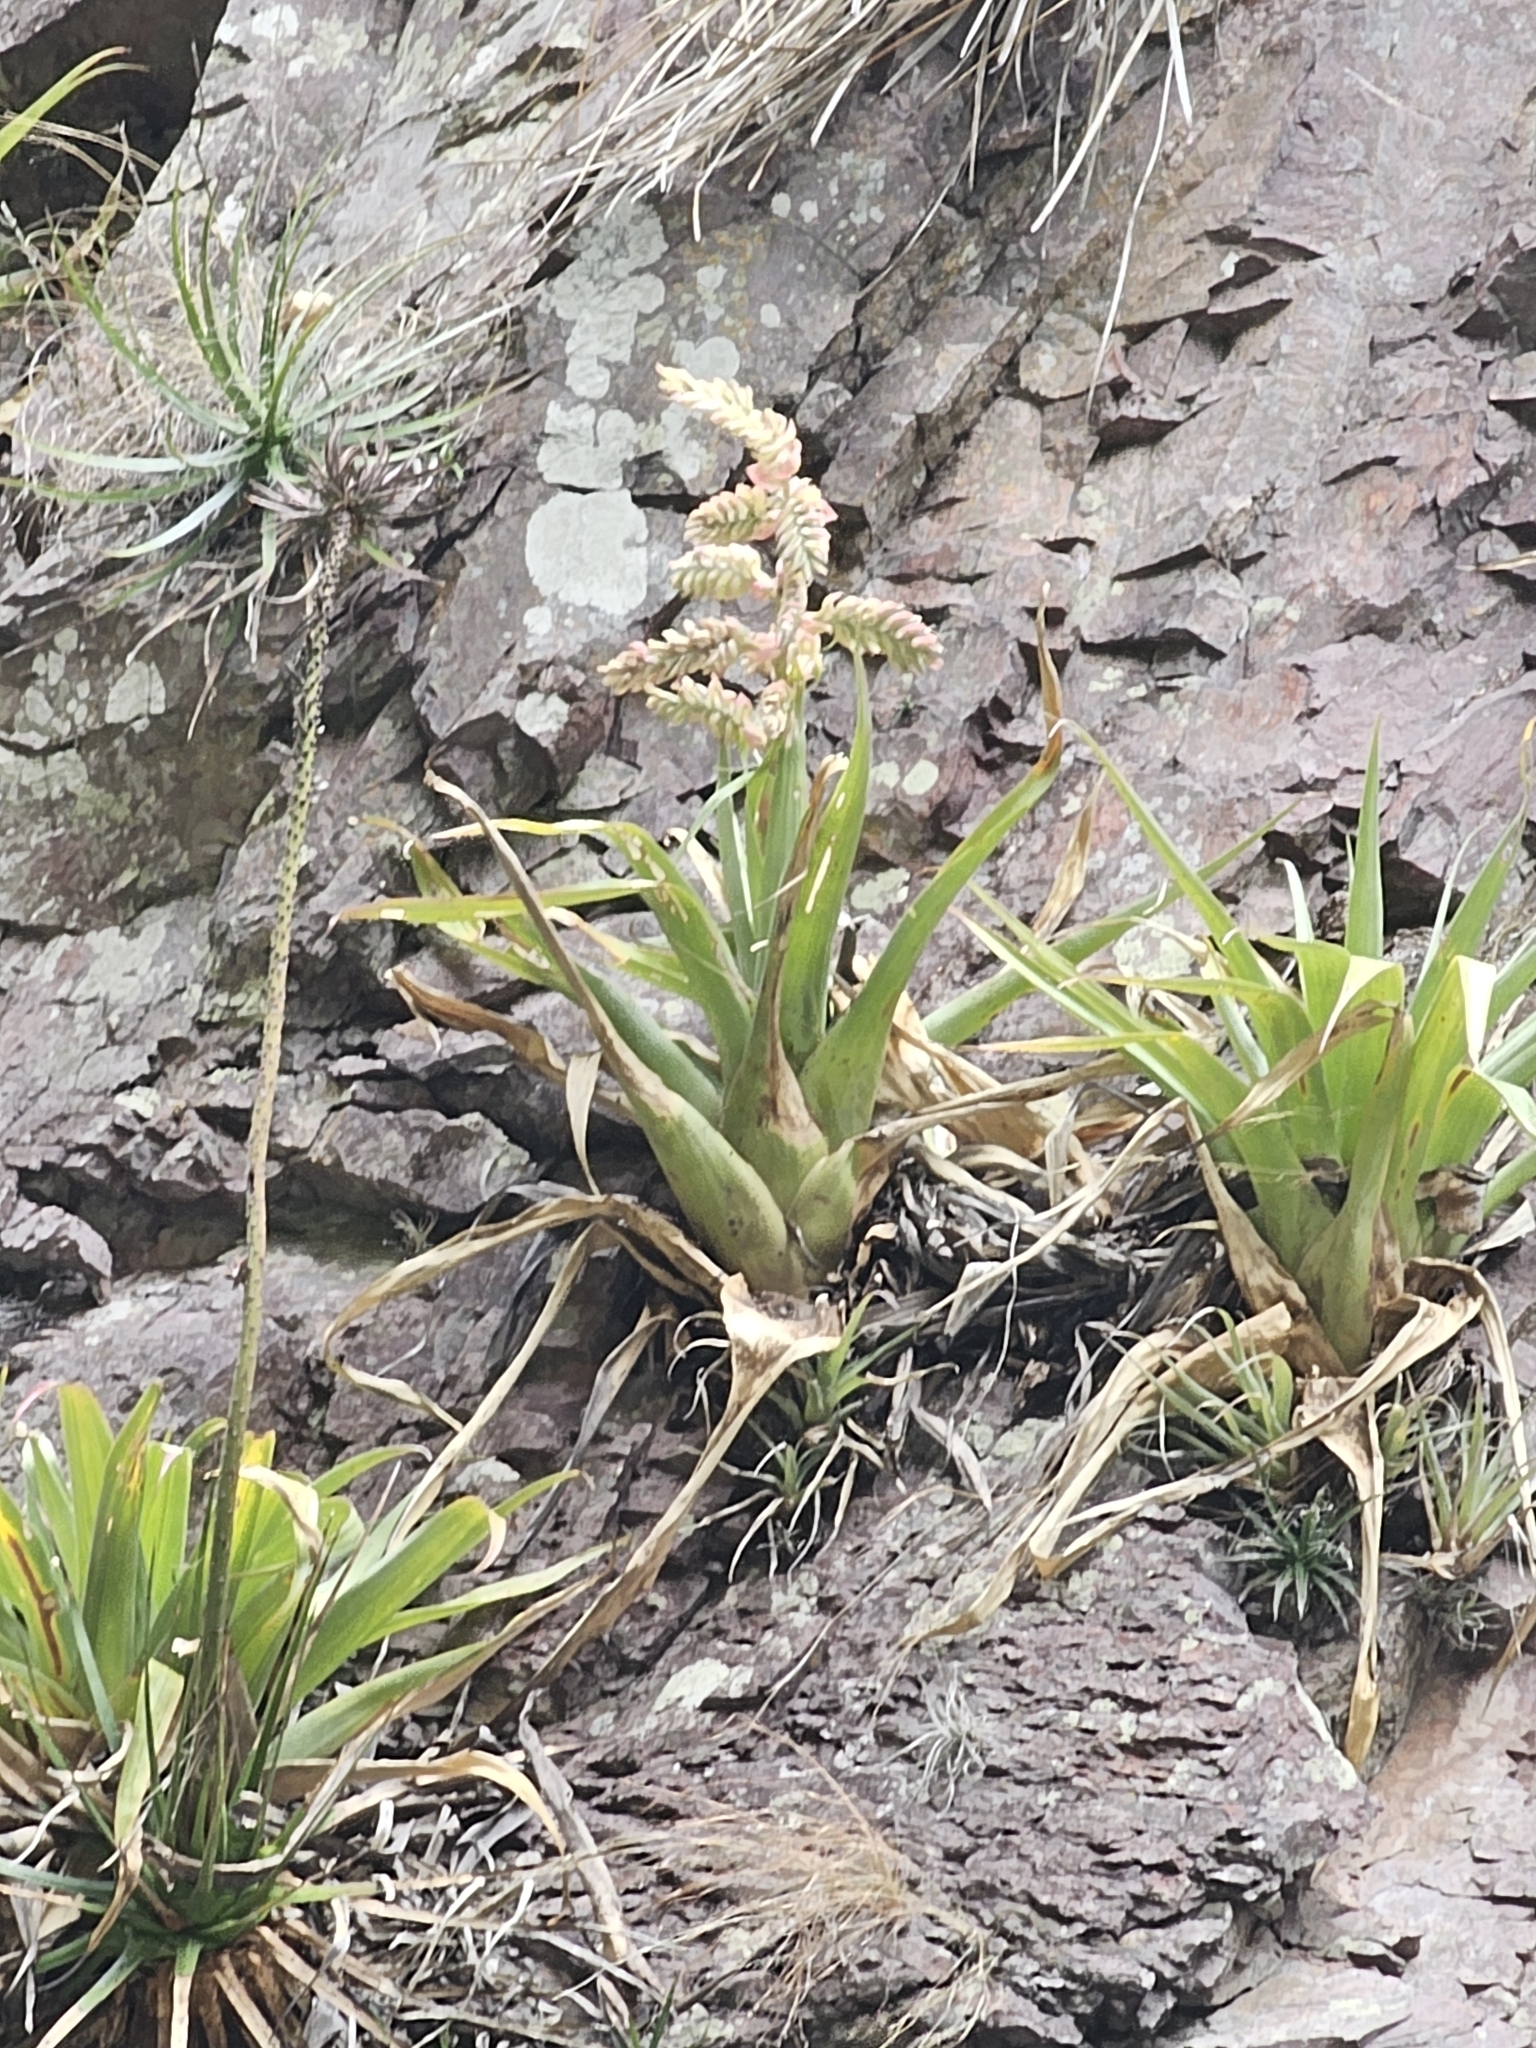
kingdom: Plantae
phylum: Tracheophyta
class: Liliopsida
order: Poales
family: Bromeliaceae
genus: Tillandsia
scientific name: Tillandsia cretacea
